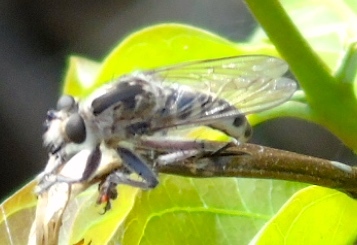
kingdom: Animalia
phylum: Arthropoda
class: Insecta
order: Diptera
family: Asilidae
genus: Efferia
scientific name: Efferia
